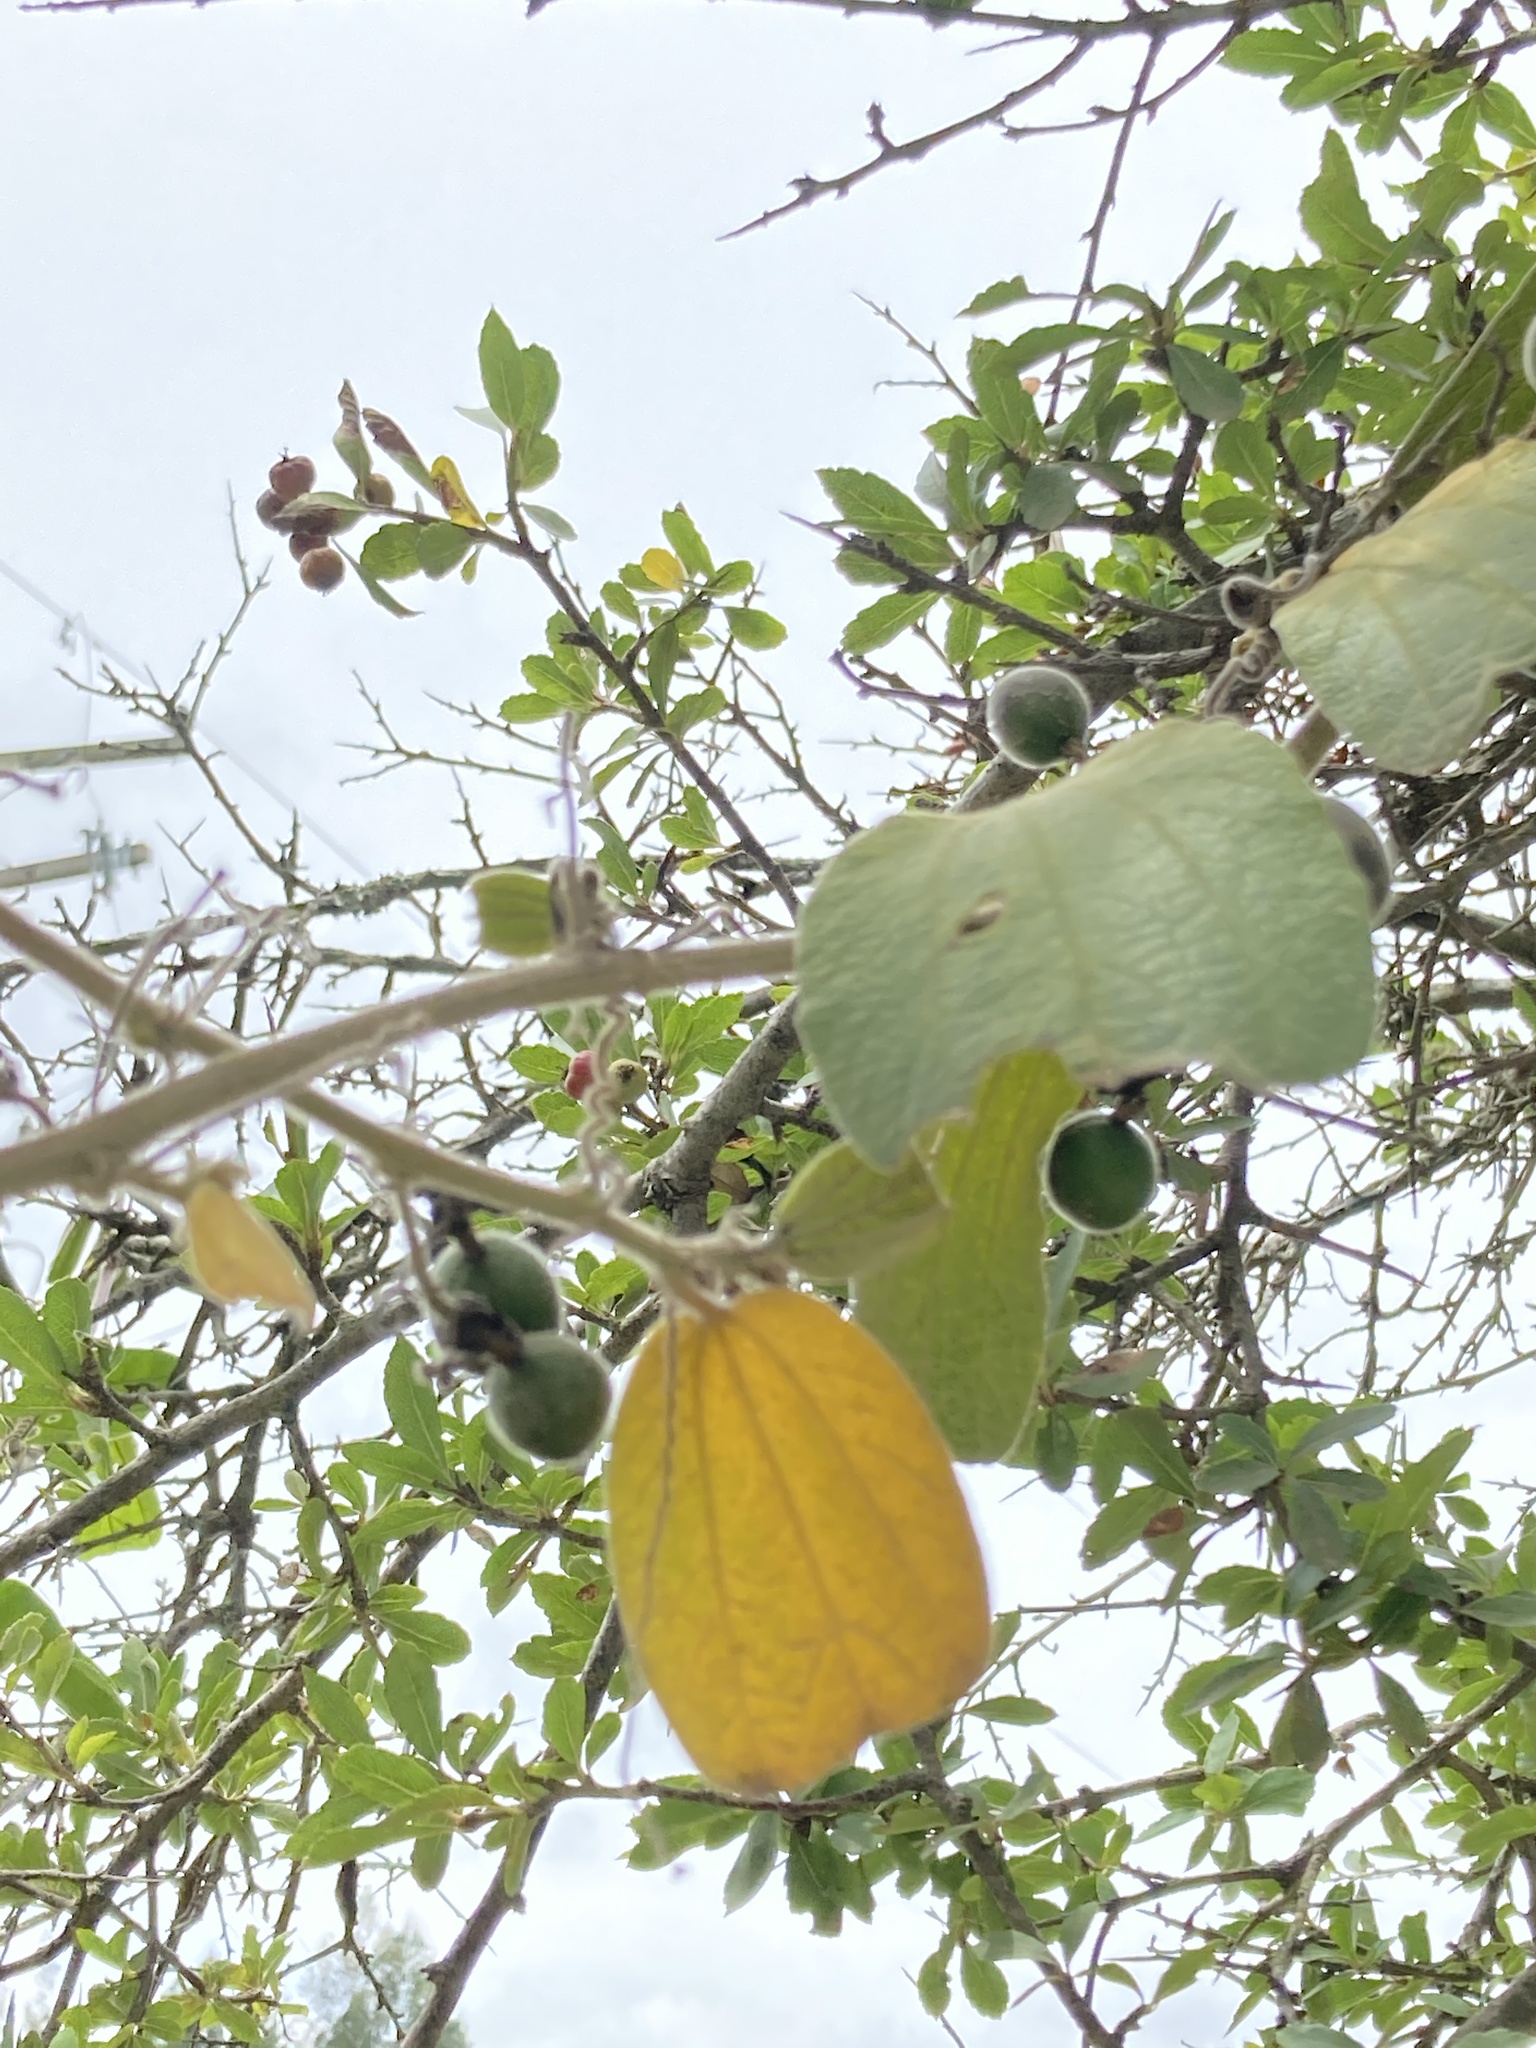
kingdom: Plantae
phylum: Tracheophyta
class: Magnoliopsida
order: Malpighiales
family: Passifloraceae
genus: Passiflora
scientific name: Passiflora bogotensis
